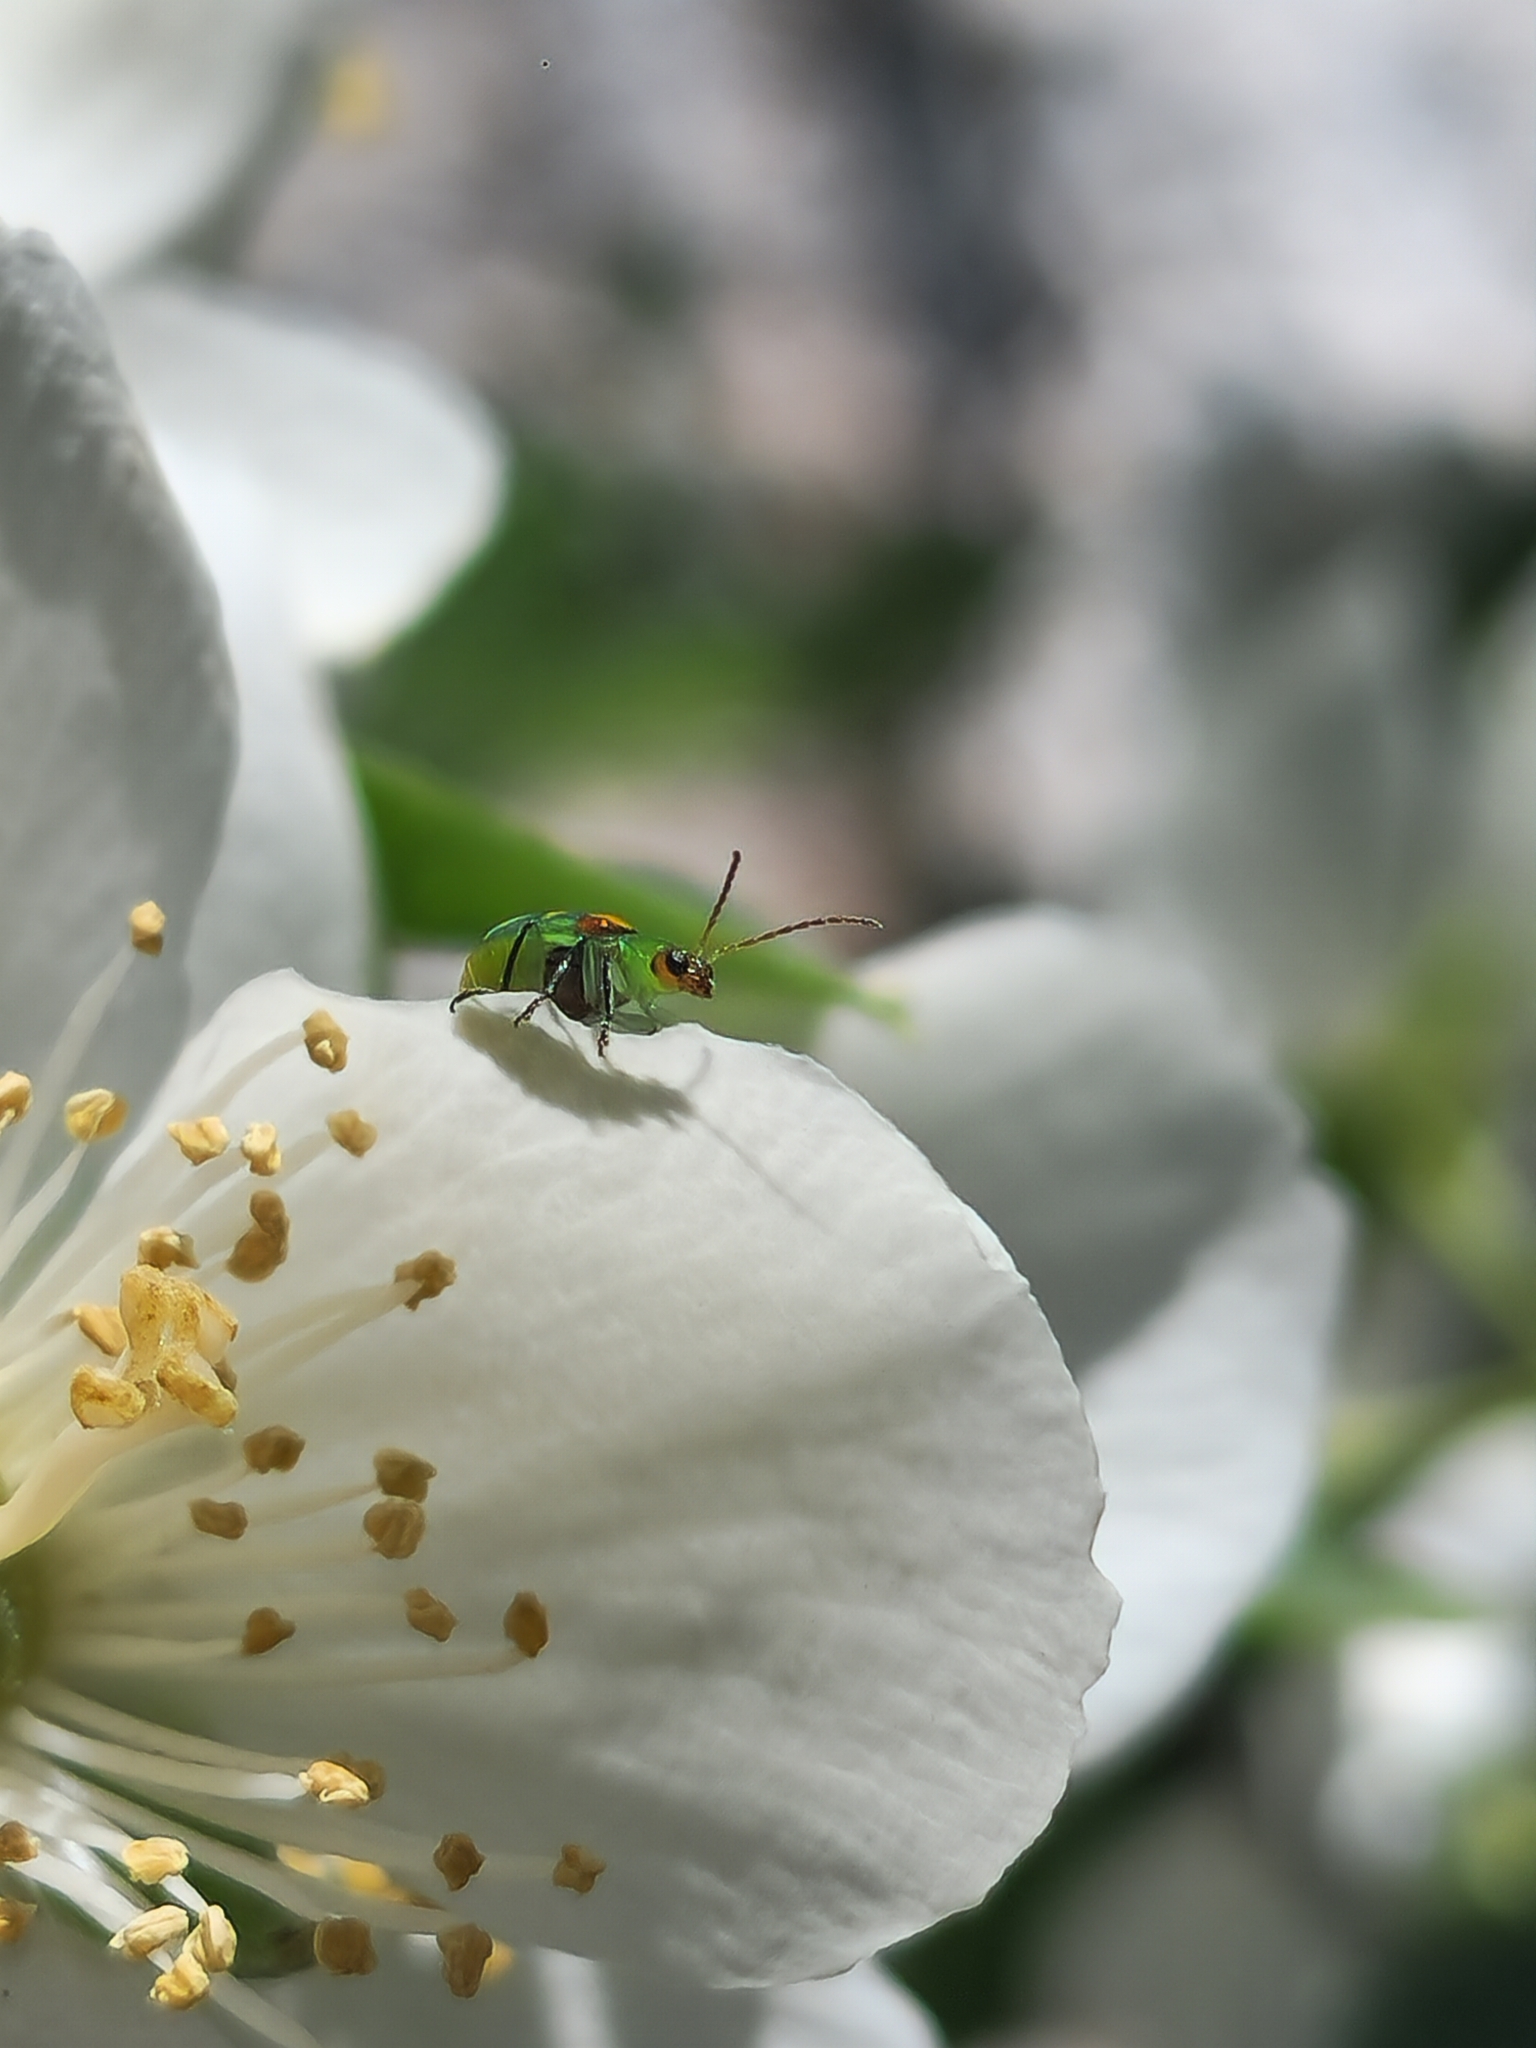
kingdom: Animalia
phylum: Arthropoda
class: Insecta
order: Coleoptera
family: Chrysomelidae
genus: Diabrotica
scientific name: Diabrotica speciosa
